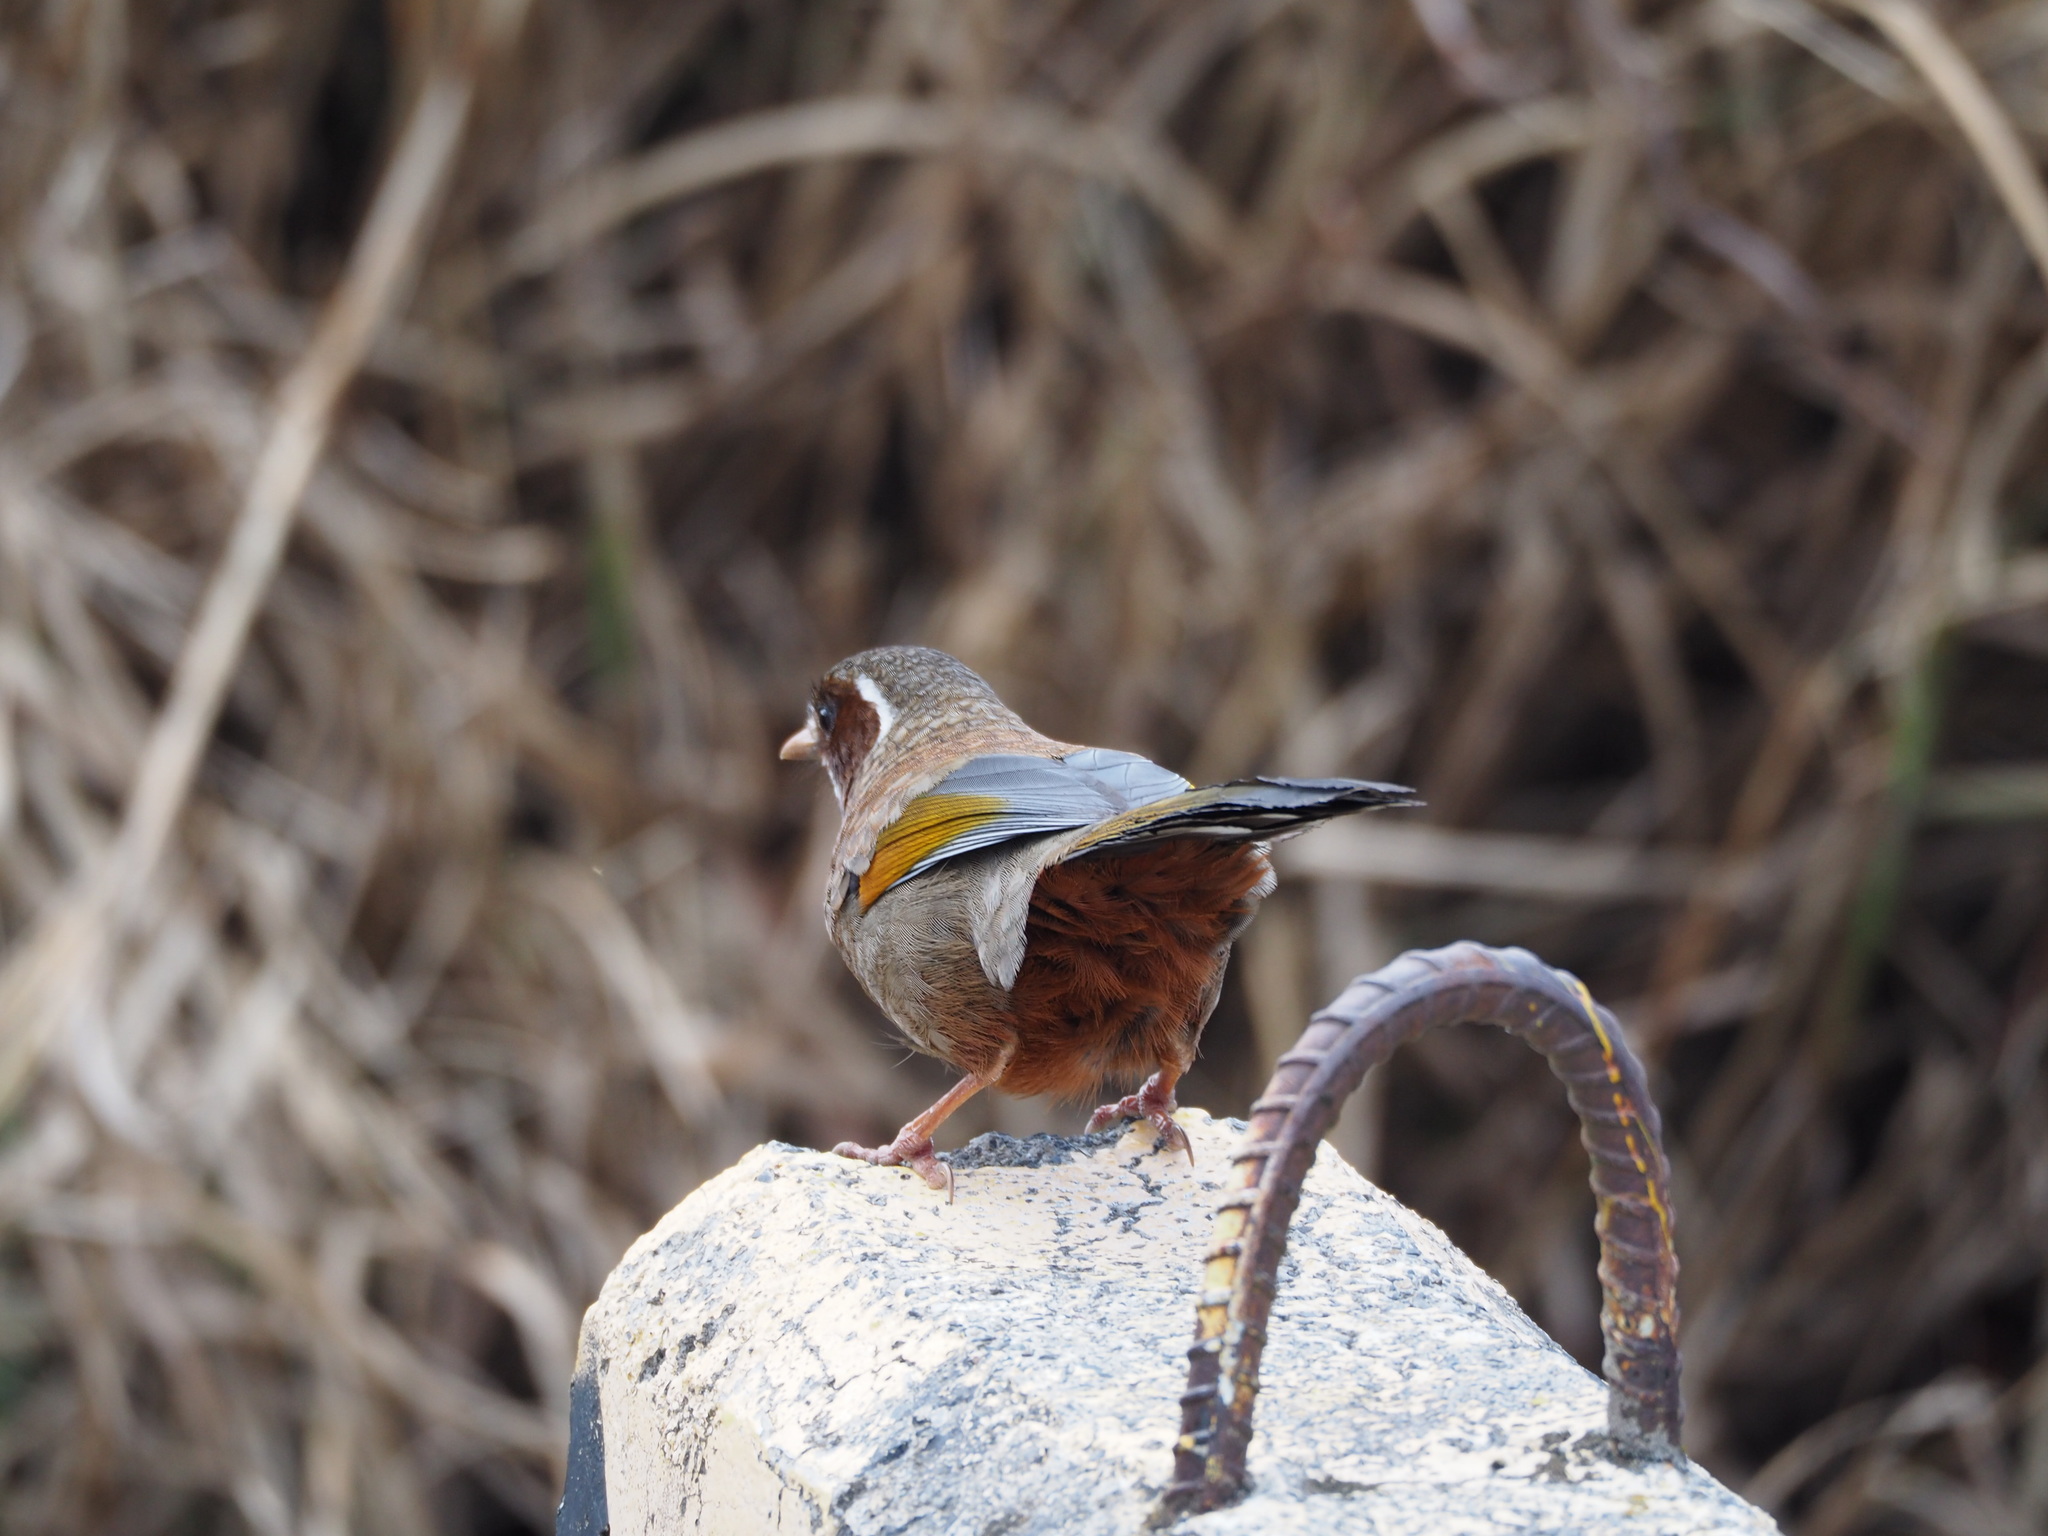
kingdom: Animalia
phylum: Chordata
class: Aves
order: Passeriformes
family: Leiothrichidae
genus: Trochalopteron
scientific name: Trochalopteron morrisonianum
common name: White-whiskered laughingthrush
